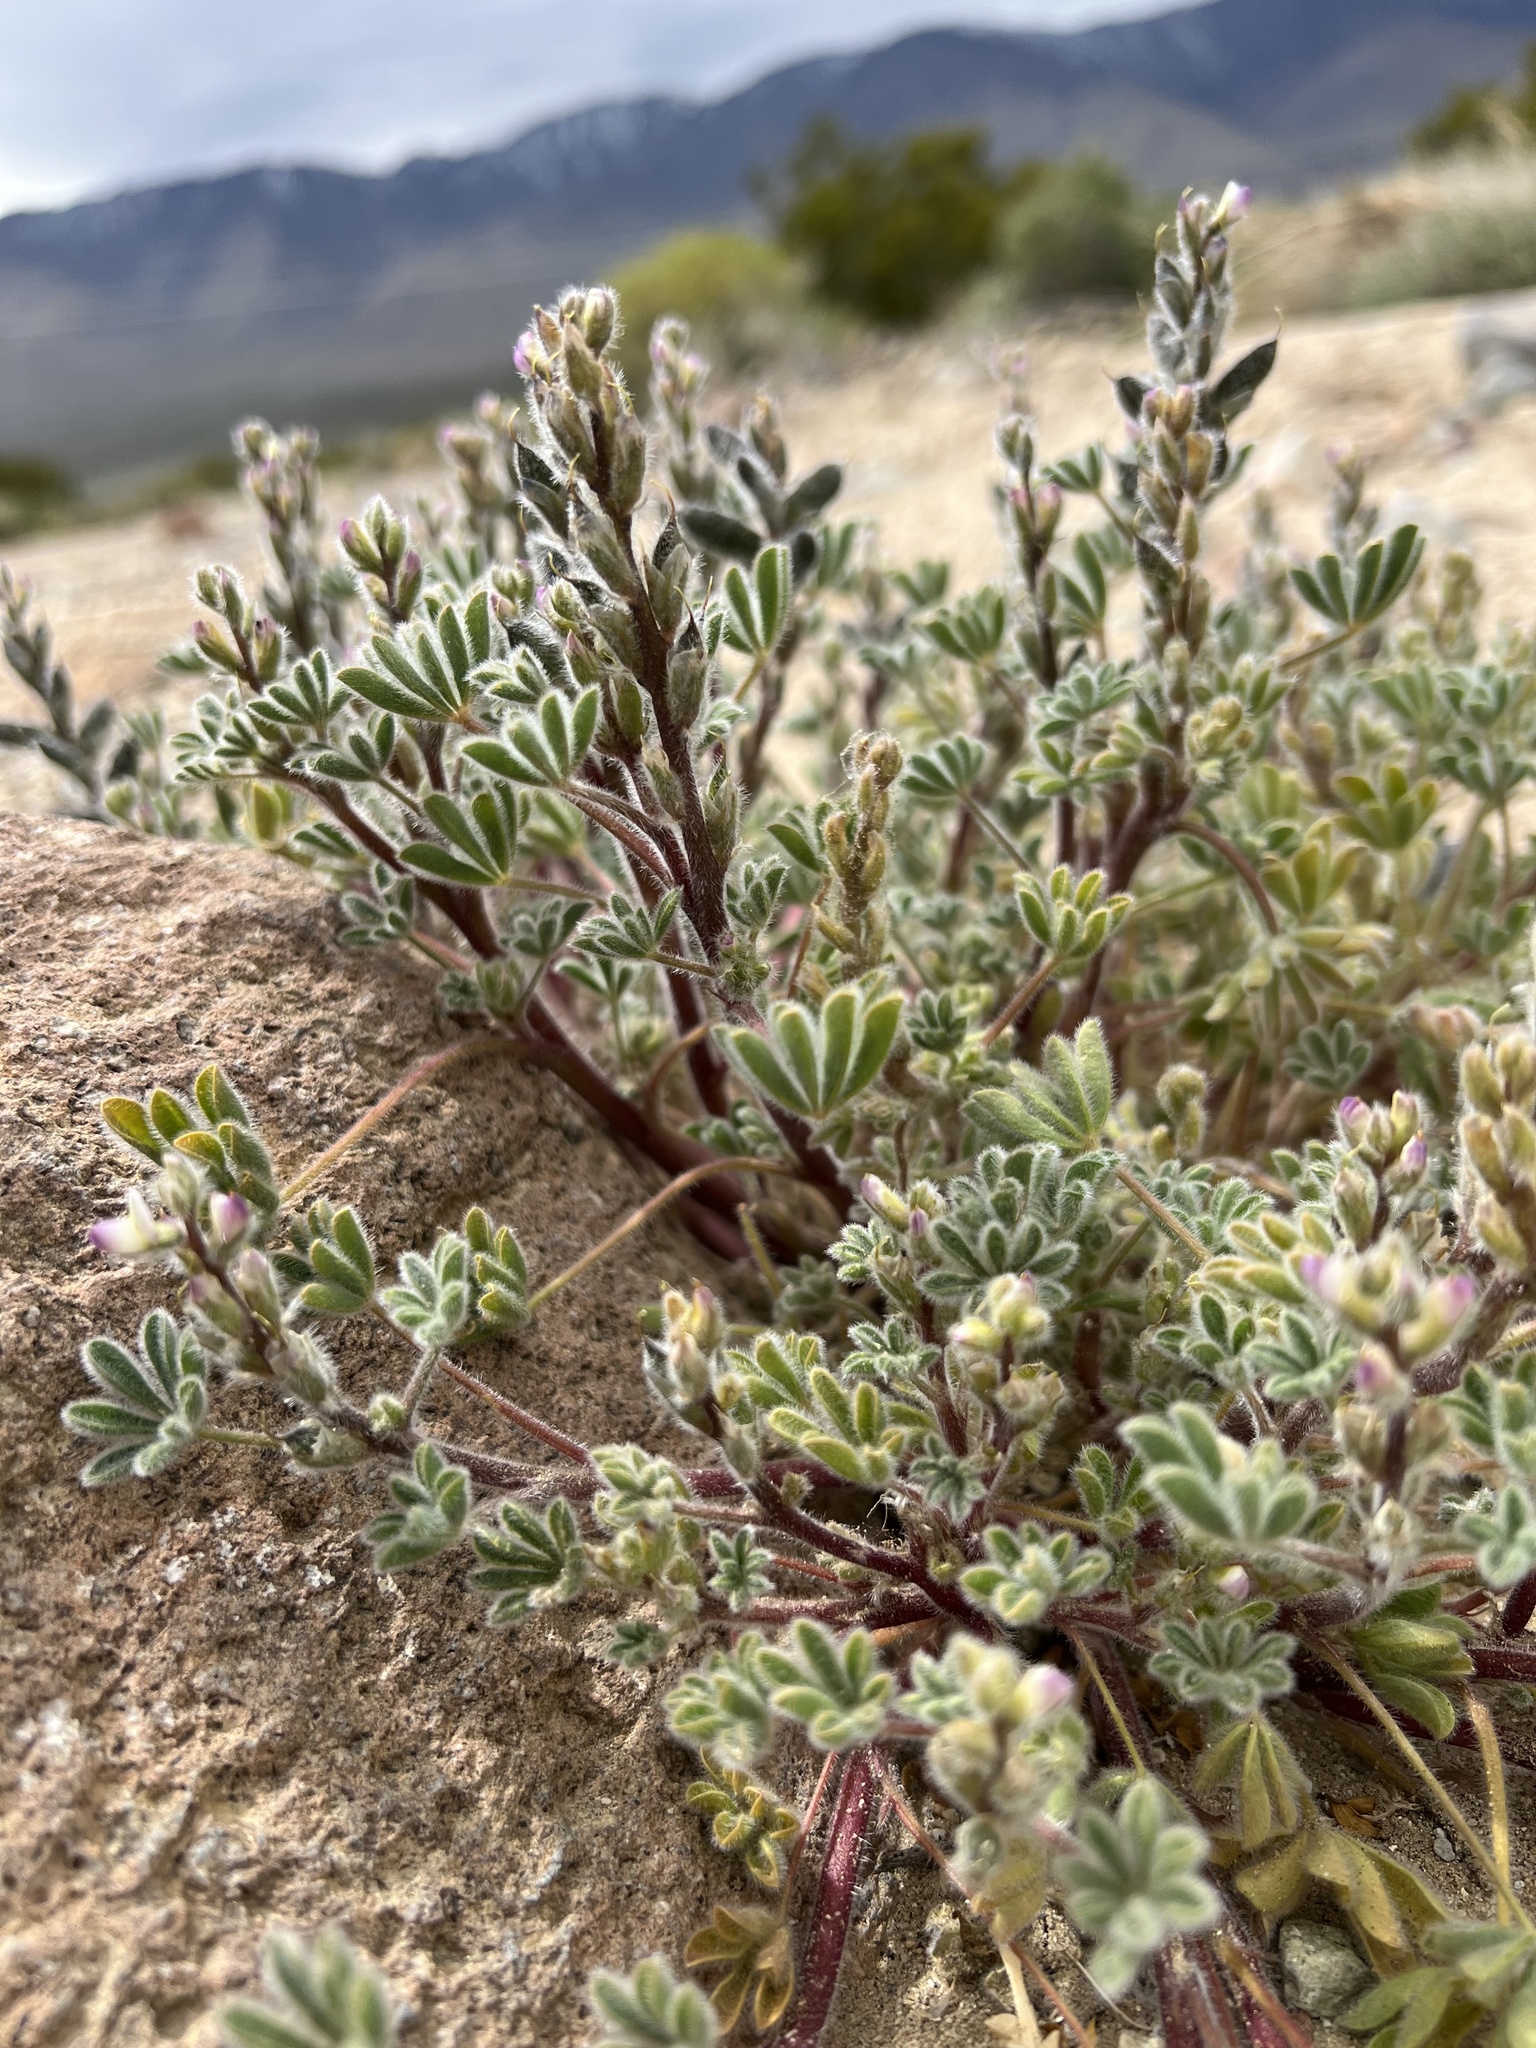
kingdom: Plantae
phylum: Tracheophyta
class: Magnoliopsida
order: Fabales
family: Fabaceae
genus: Lupinus
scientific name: Lupinus concinnus
